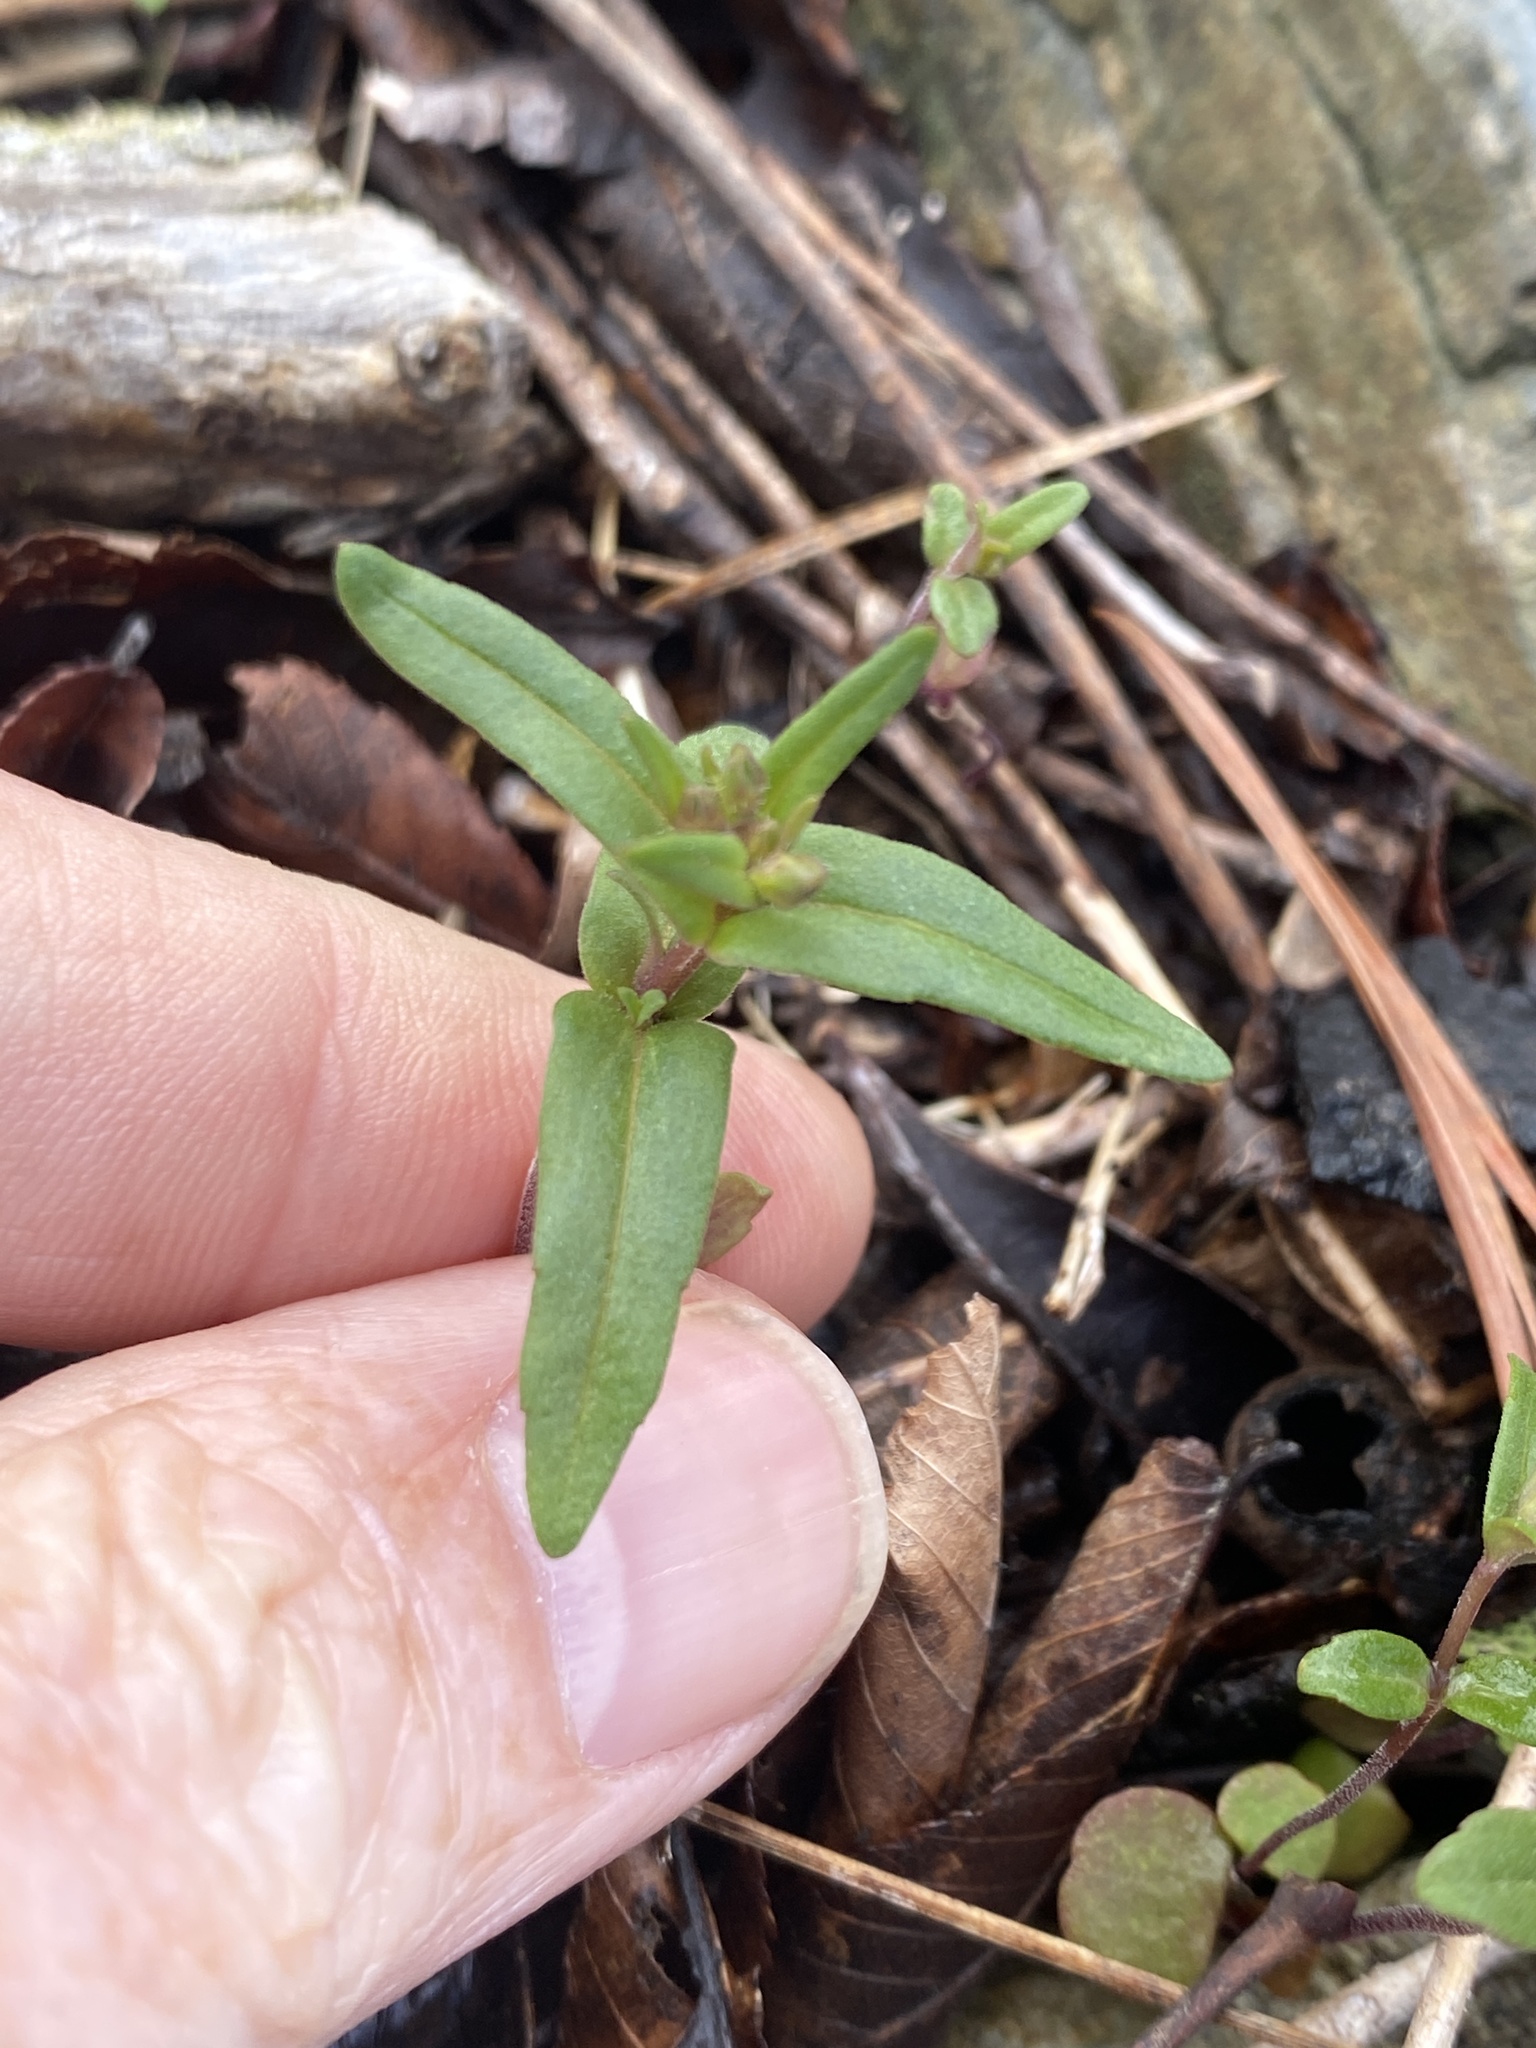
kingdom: Plantae
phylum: Tracheophyta
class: Magnoliopsida
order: Lamiales
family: Lamiaceae
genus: Clinopodium
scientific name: Clinopodium arkansanum
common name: Limestone calamint
